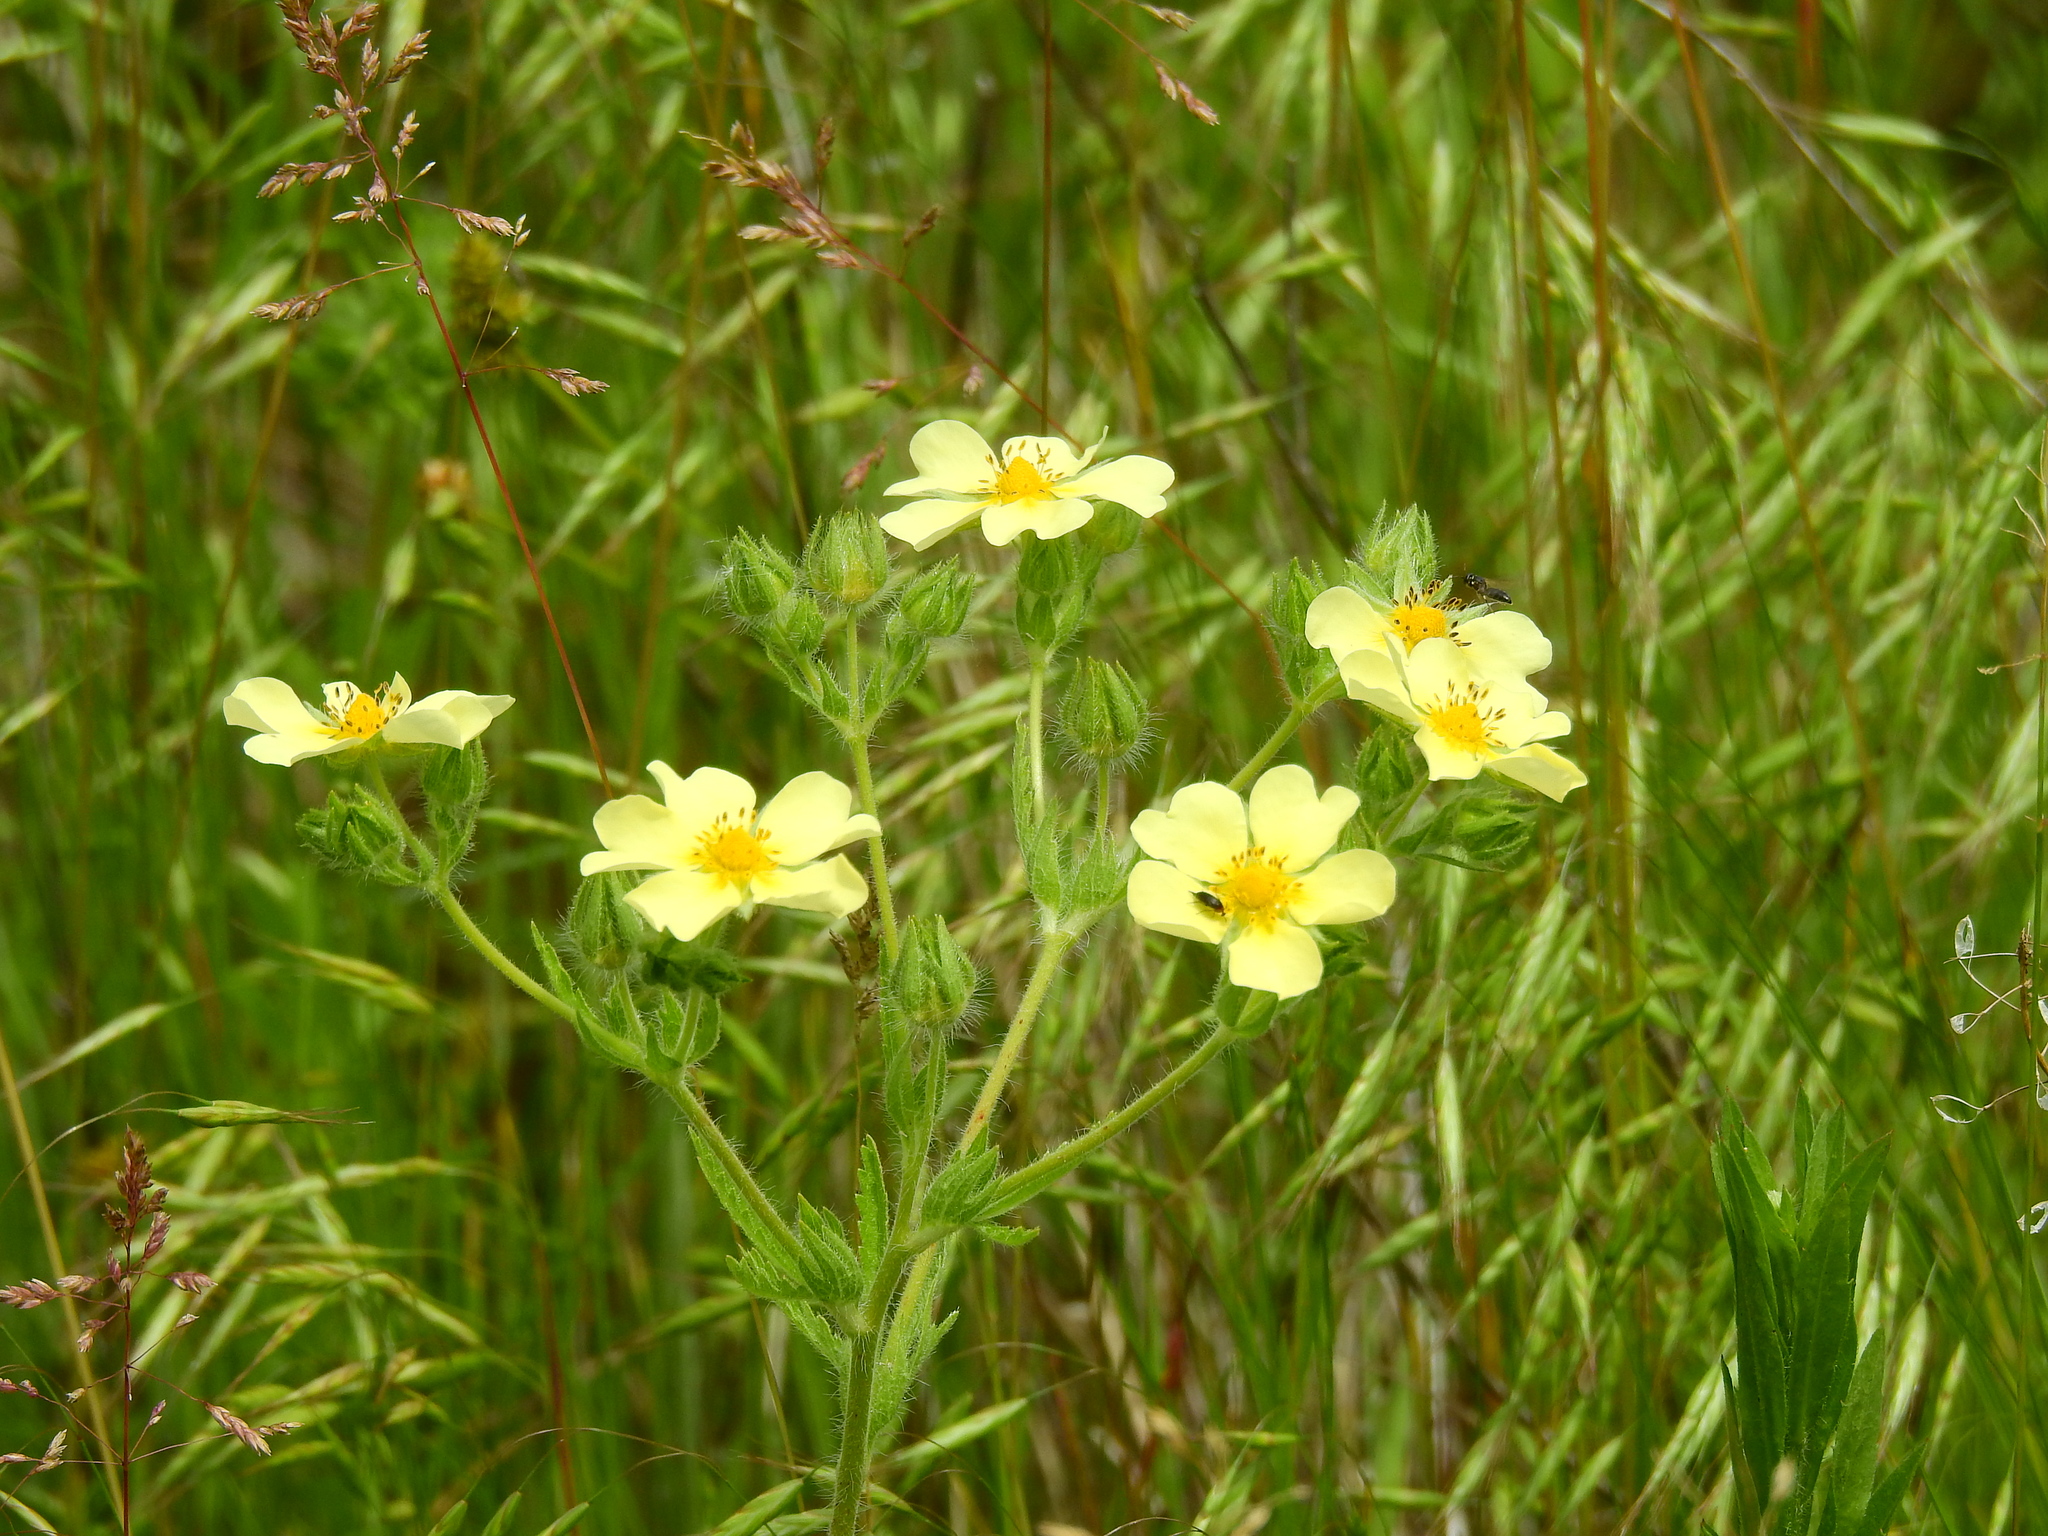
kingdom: Plantae
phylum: Tracheophyta
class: Magnoliopsida
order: Rosales
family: Rosaceae
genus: Potentilla
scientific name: Potentilla recta
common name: Sulphur cinquefoil
